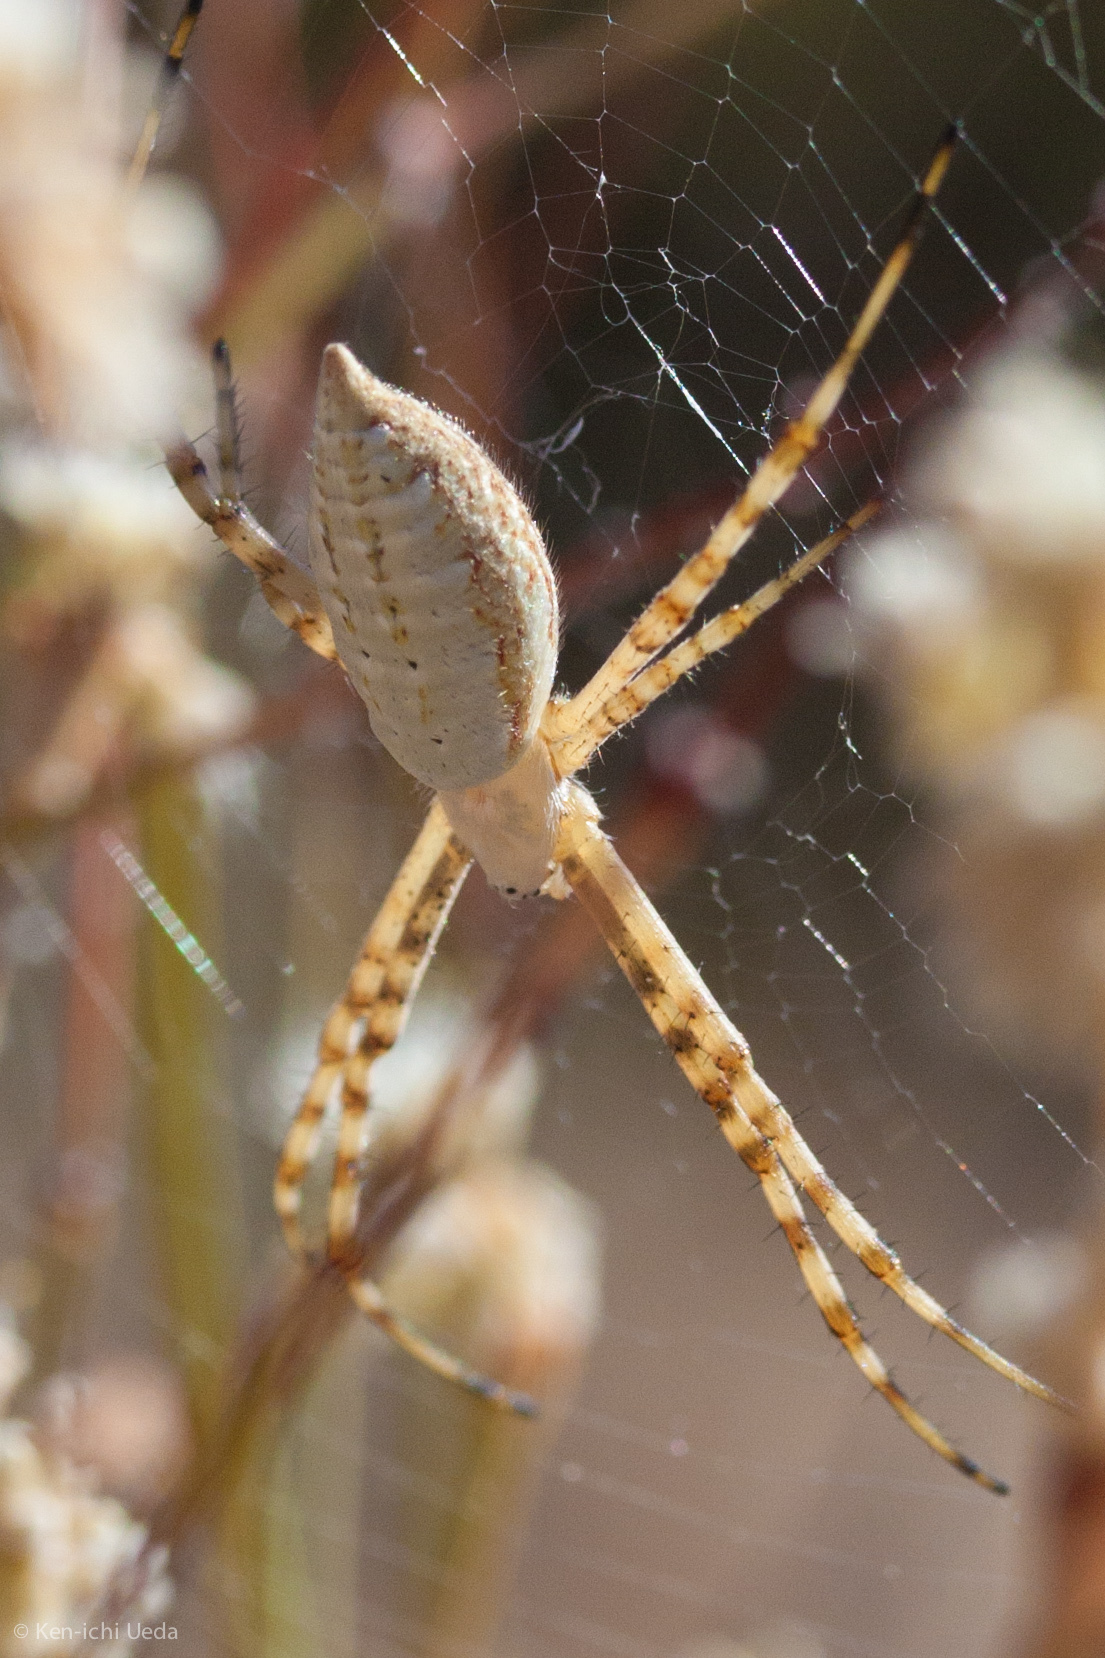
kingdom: Animalia
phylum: Arthropoda
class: Arachnida
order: Araneae
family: Araneidae
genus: Argiope
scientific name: Argiope trifasciata
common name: Banded garden spider
